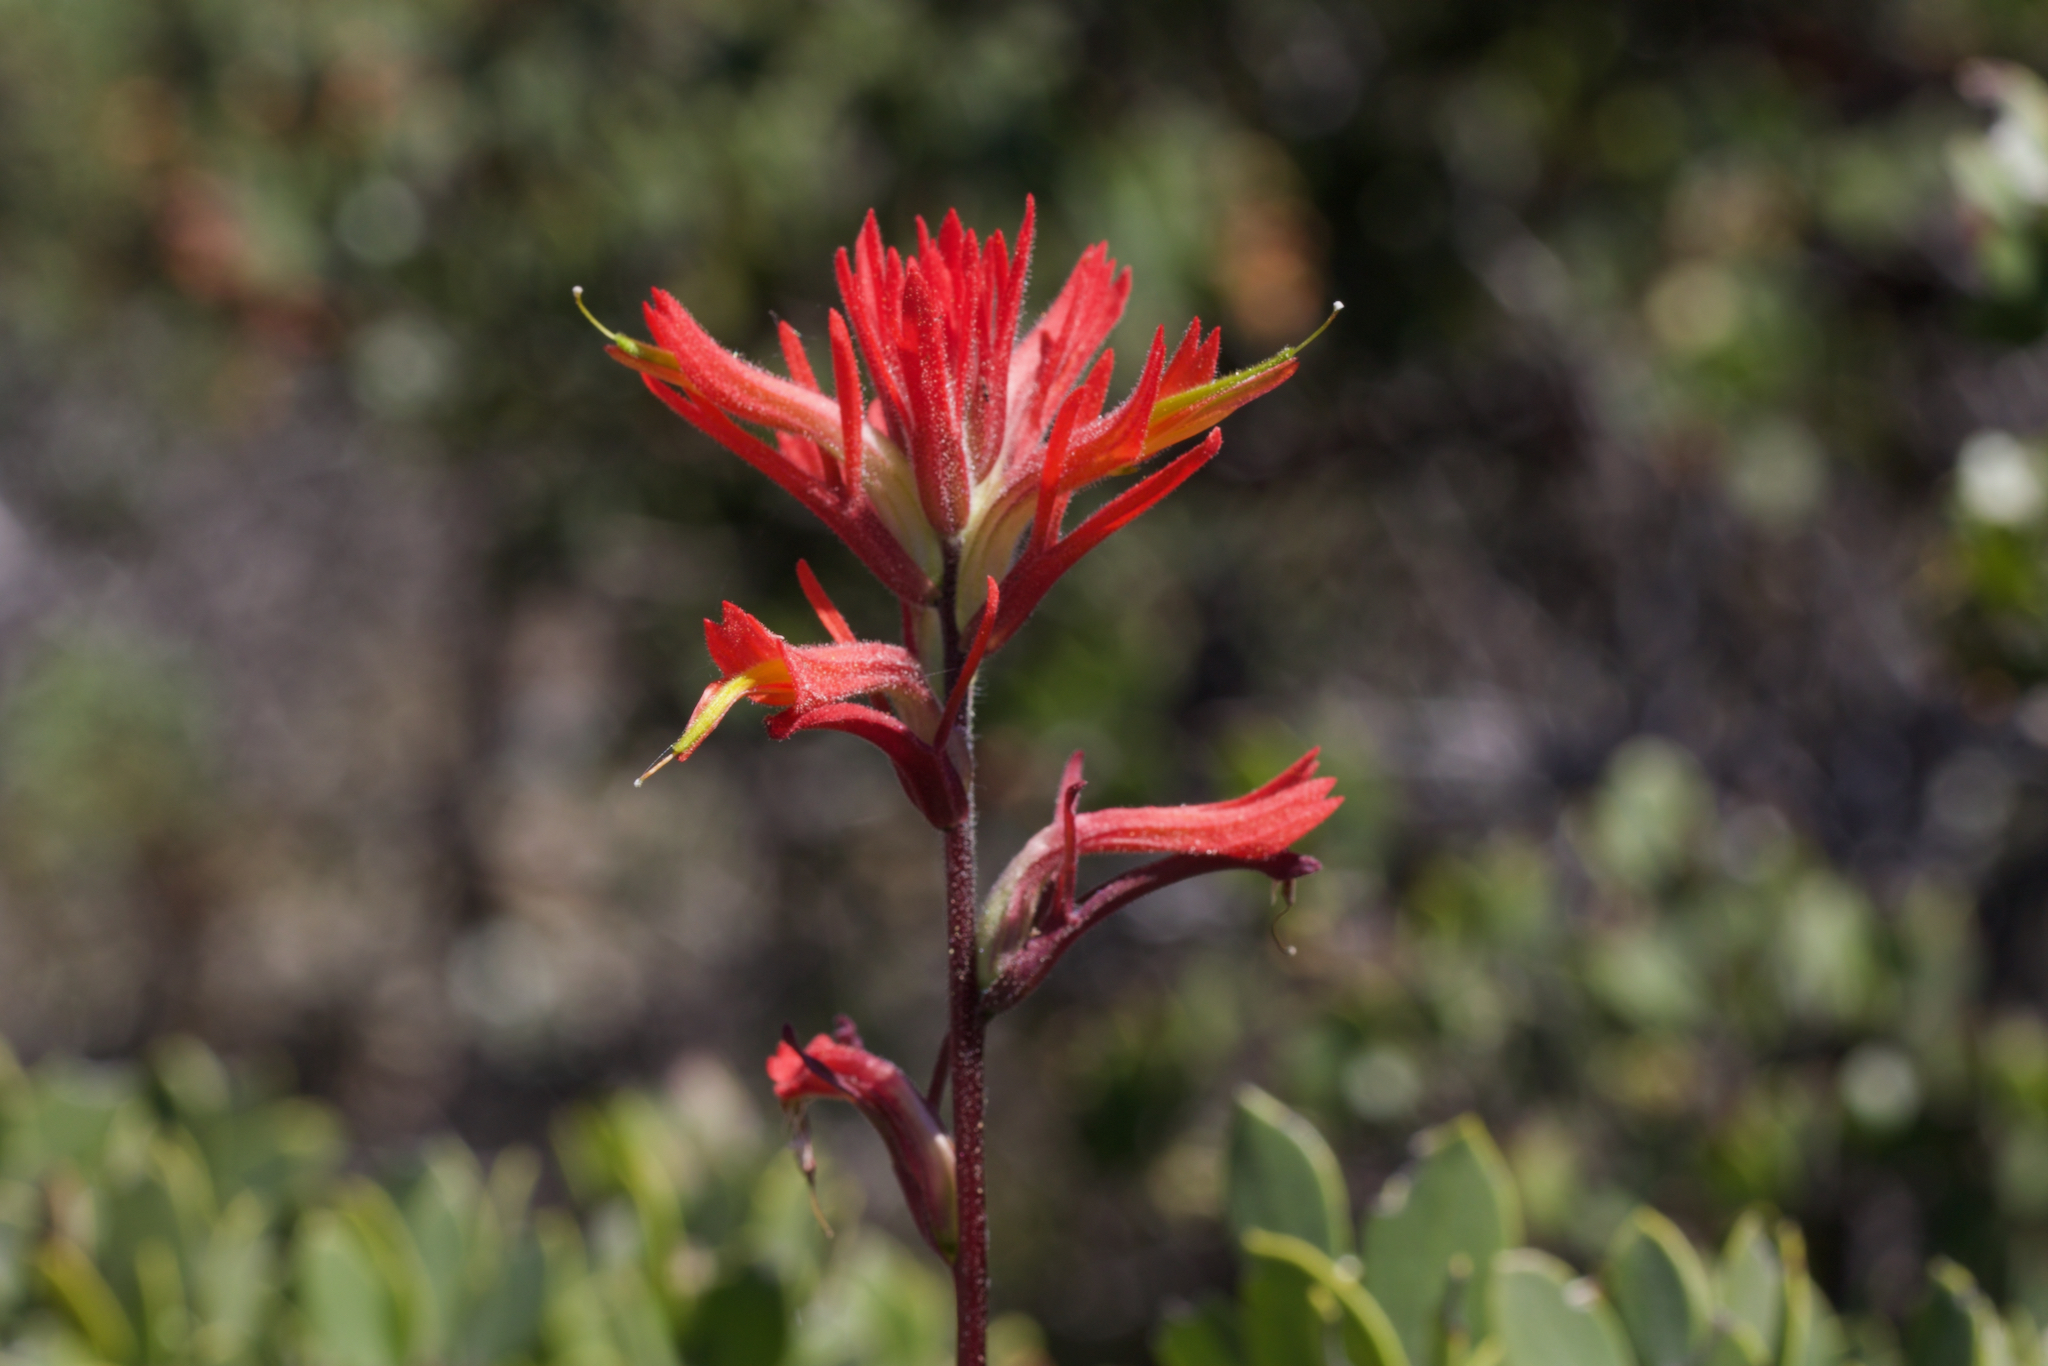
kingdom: Plantae
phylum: Tracheophyta
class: Magnoliopsida
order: Lamiales
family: Orobanchaceae
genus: Castilleja
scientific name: Castilleja subinclusa
